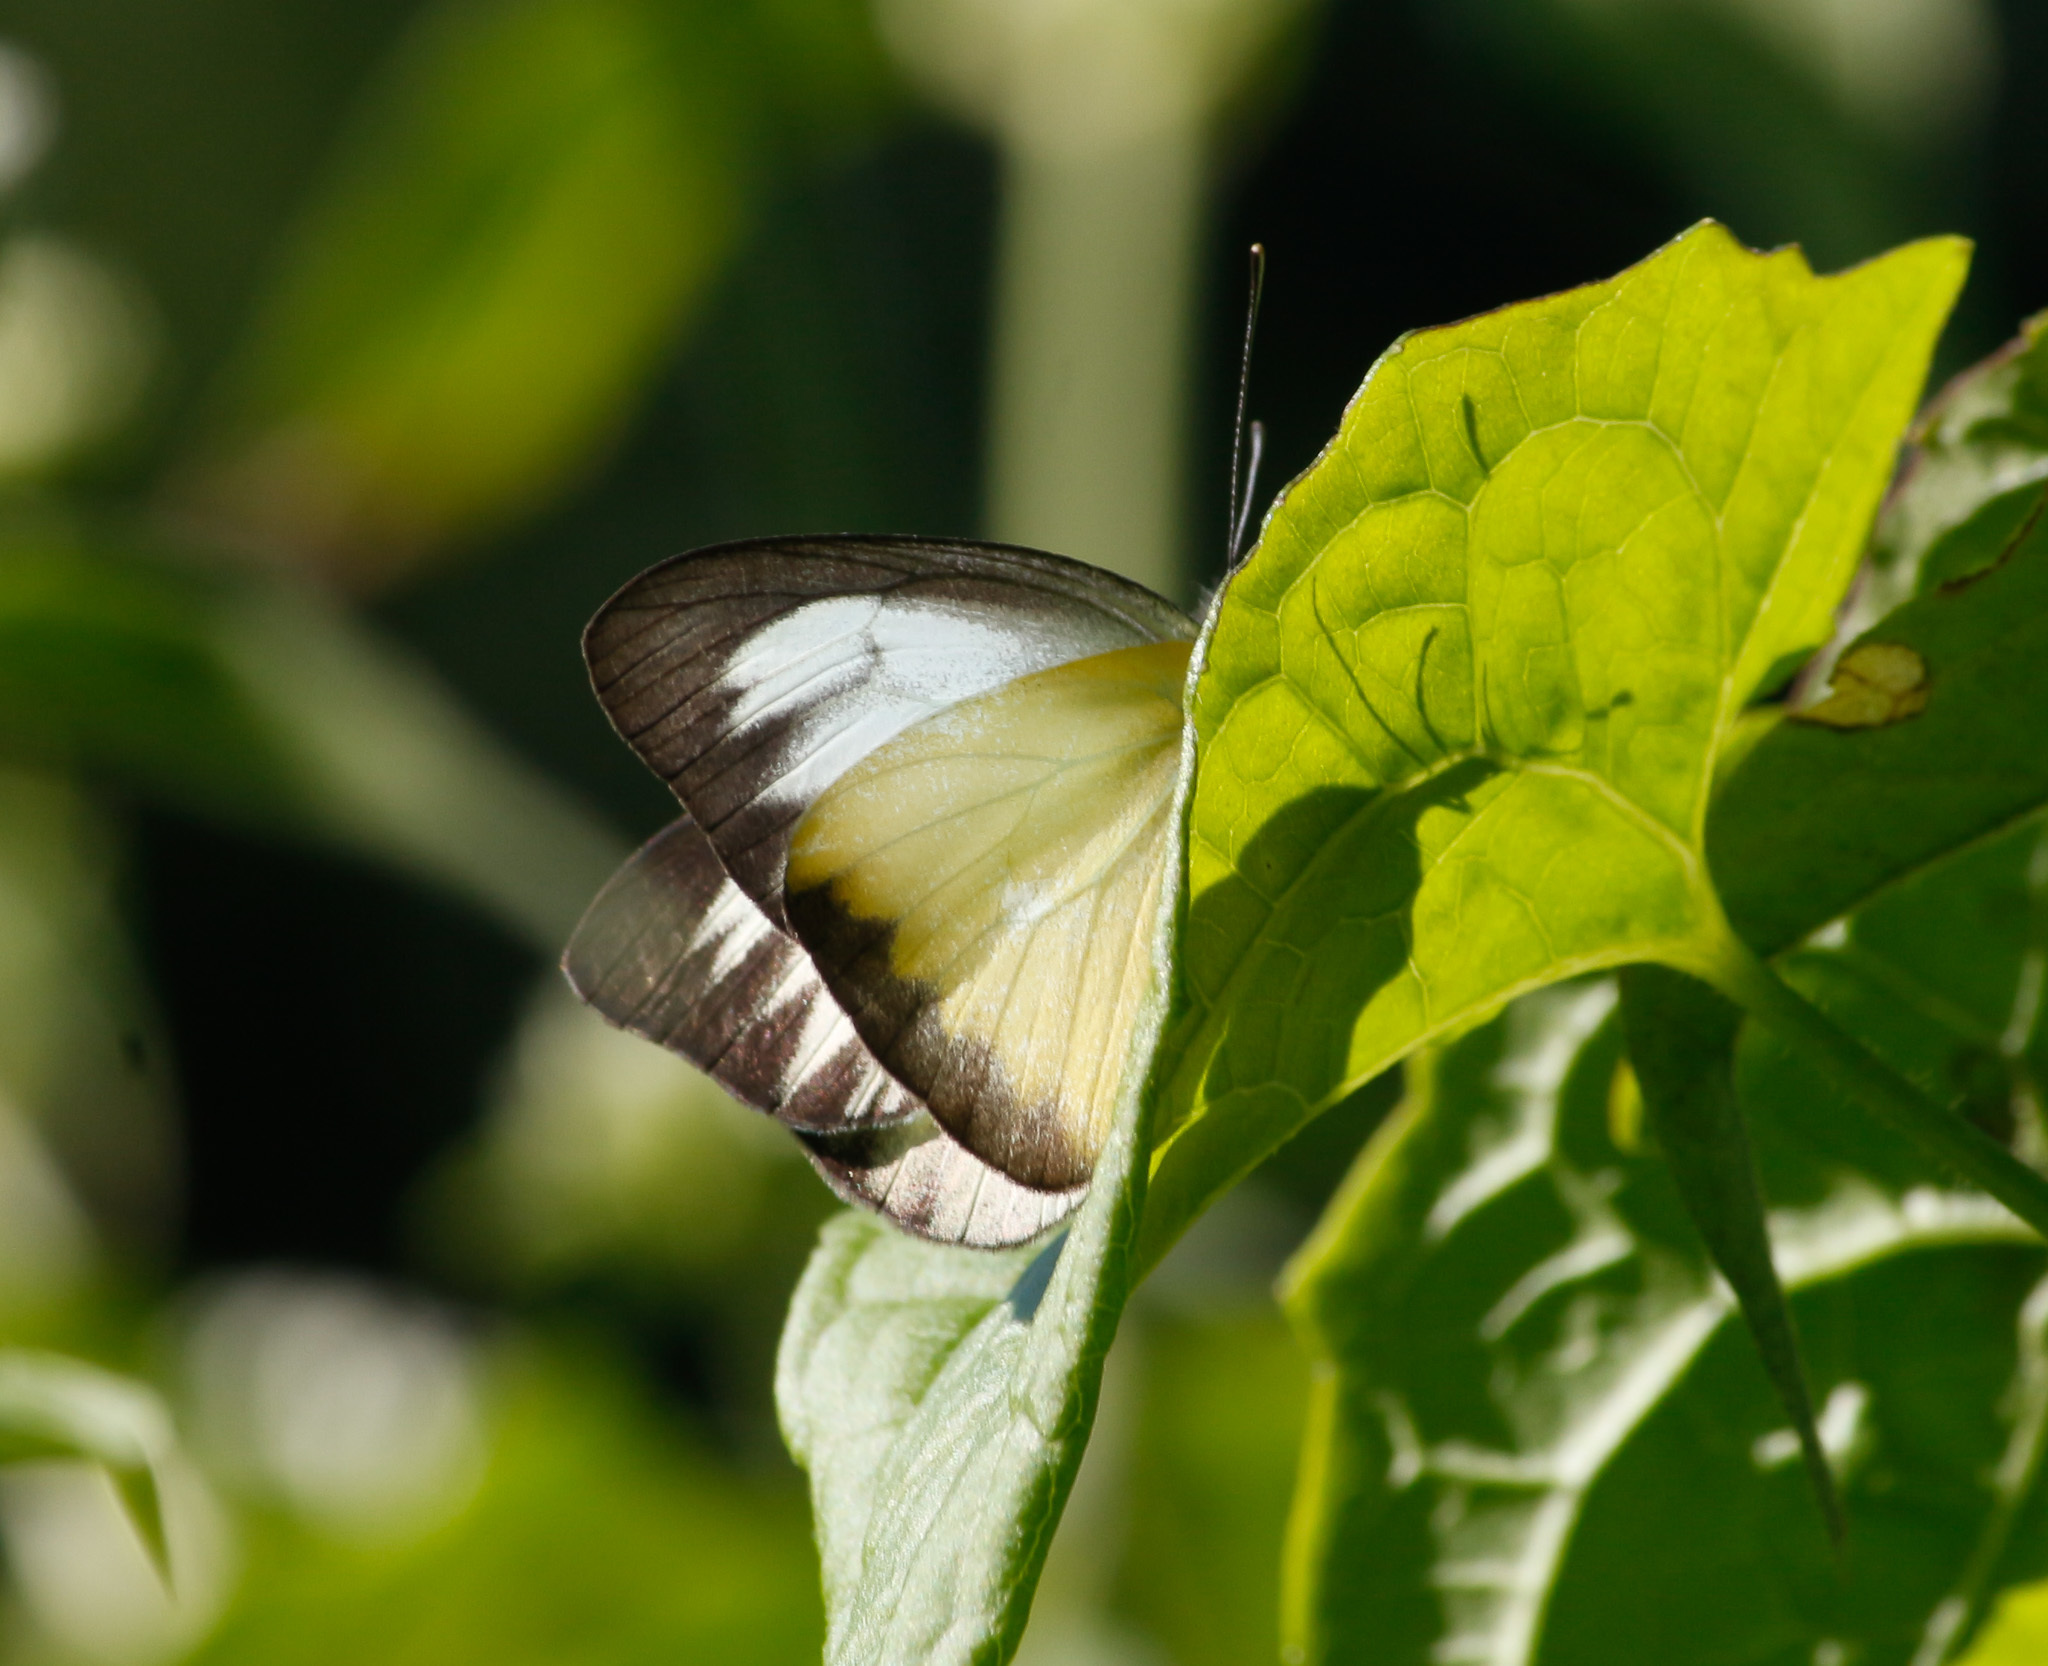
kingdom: Animalia
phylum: Arthropoda
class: Insecta
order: Lepidoptera
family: Pieridae
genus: Appias
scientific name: Appias lyncida
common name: Chocolate albatross
